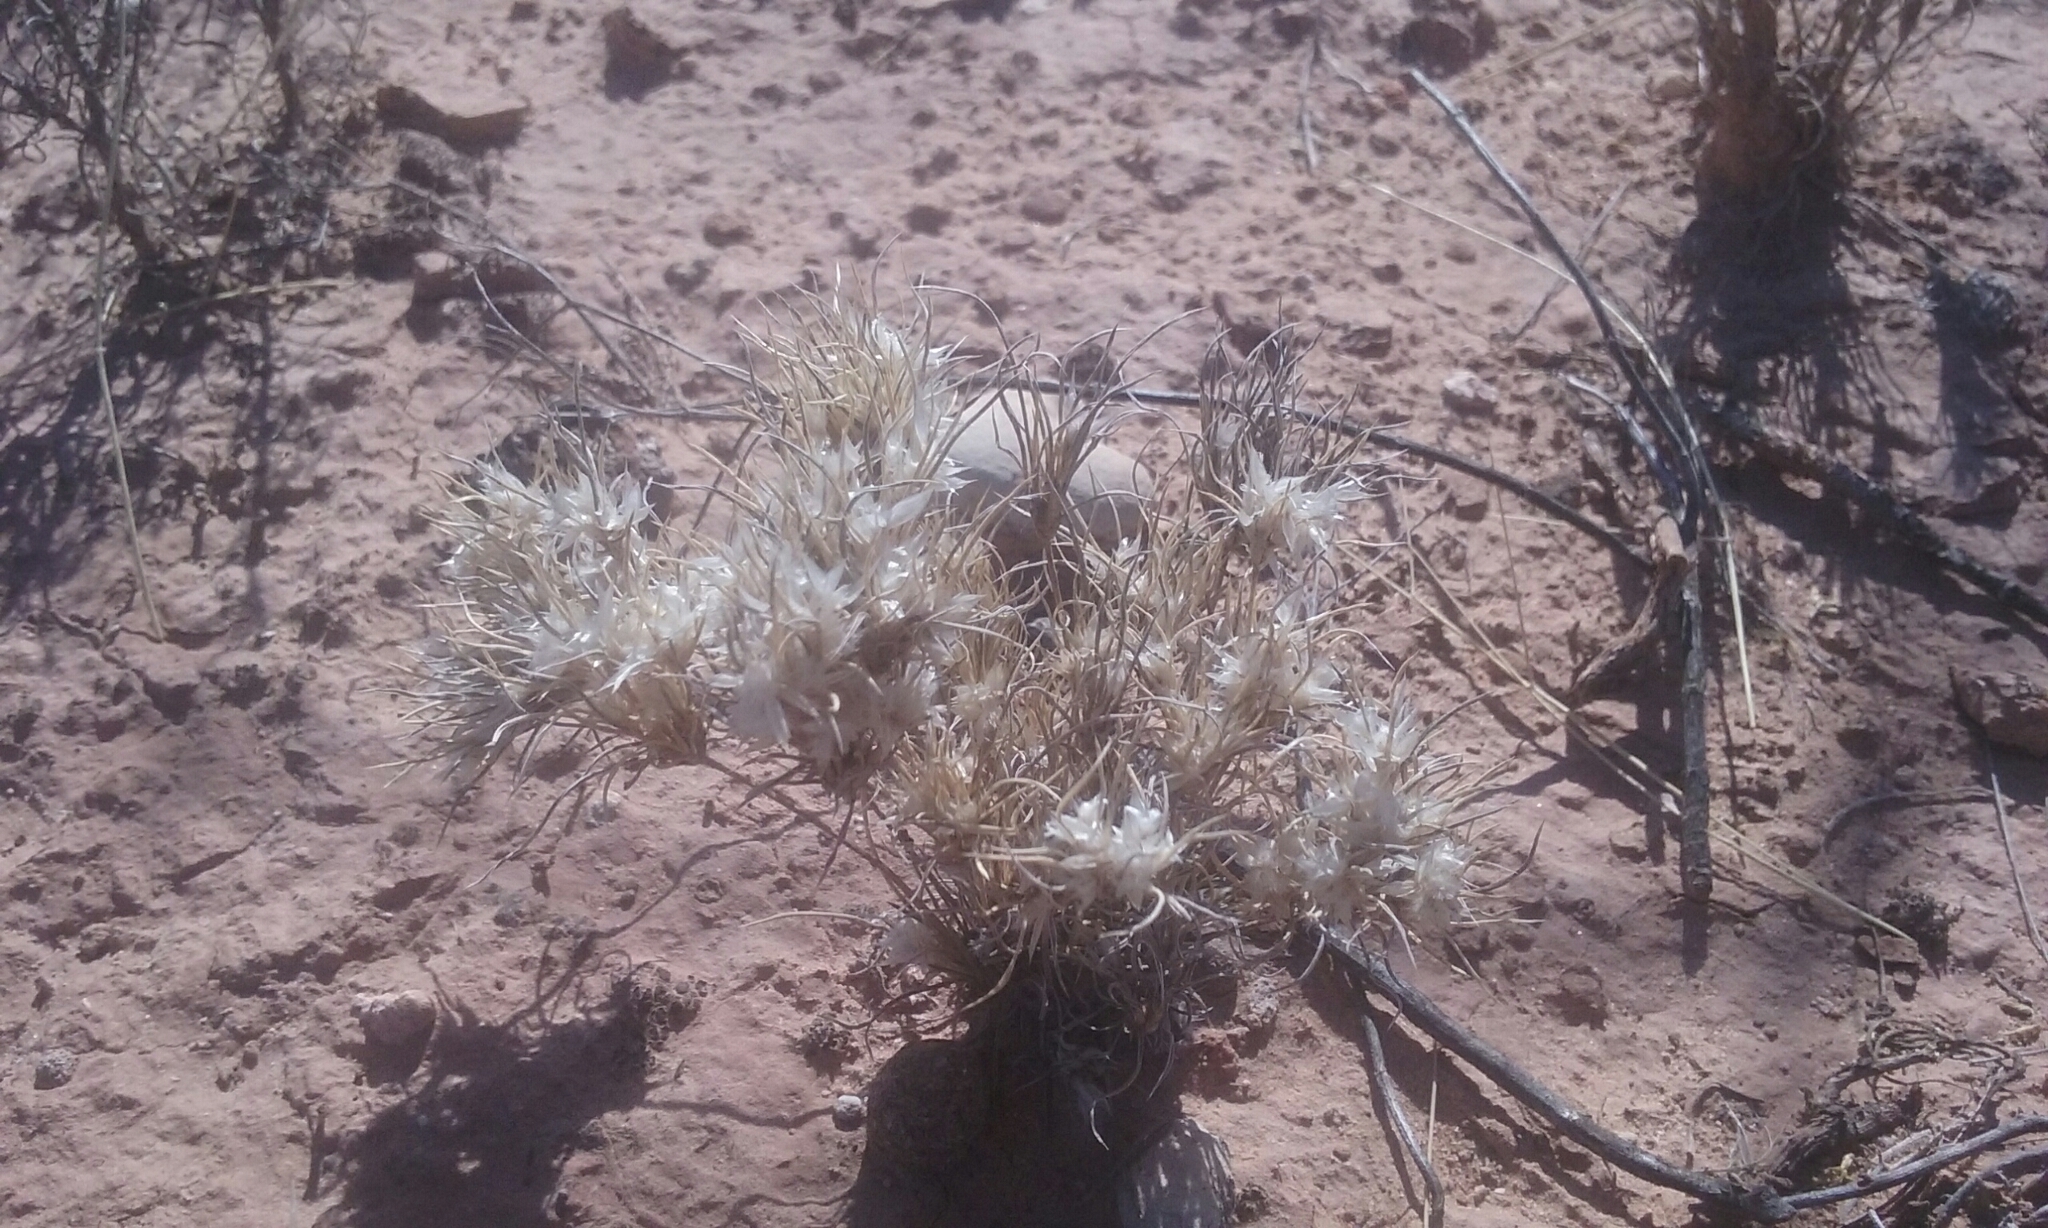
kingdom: Plantae
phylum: Tracheophyta
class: Liliopsida
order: Poales
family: Poaceae
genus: Dasyochloa
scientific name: Dasyochloa pulchella
